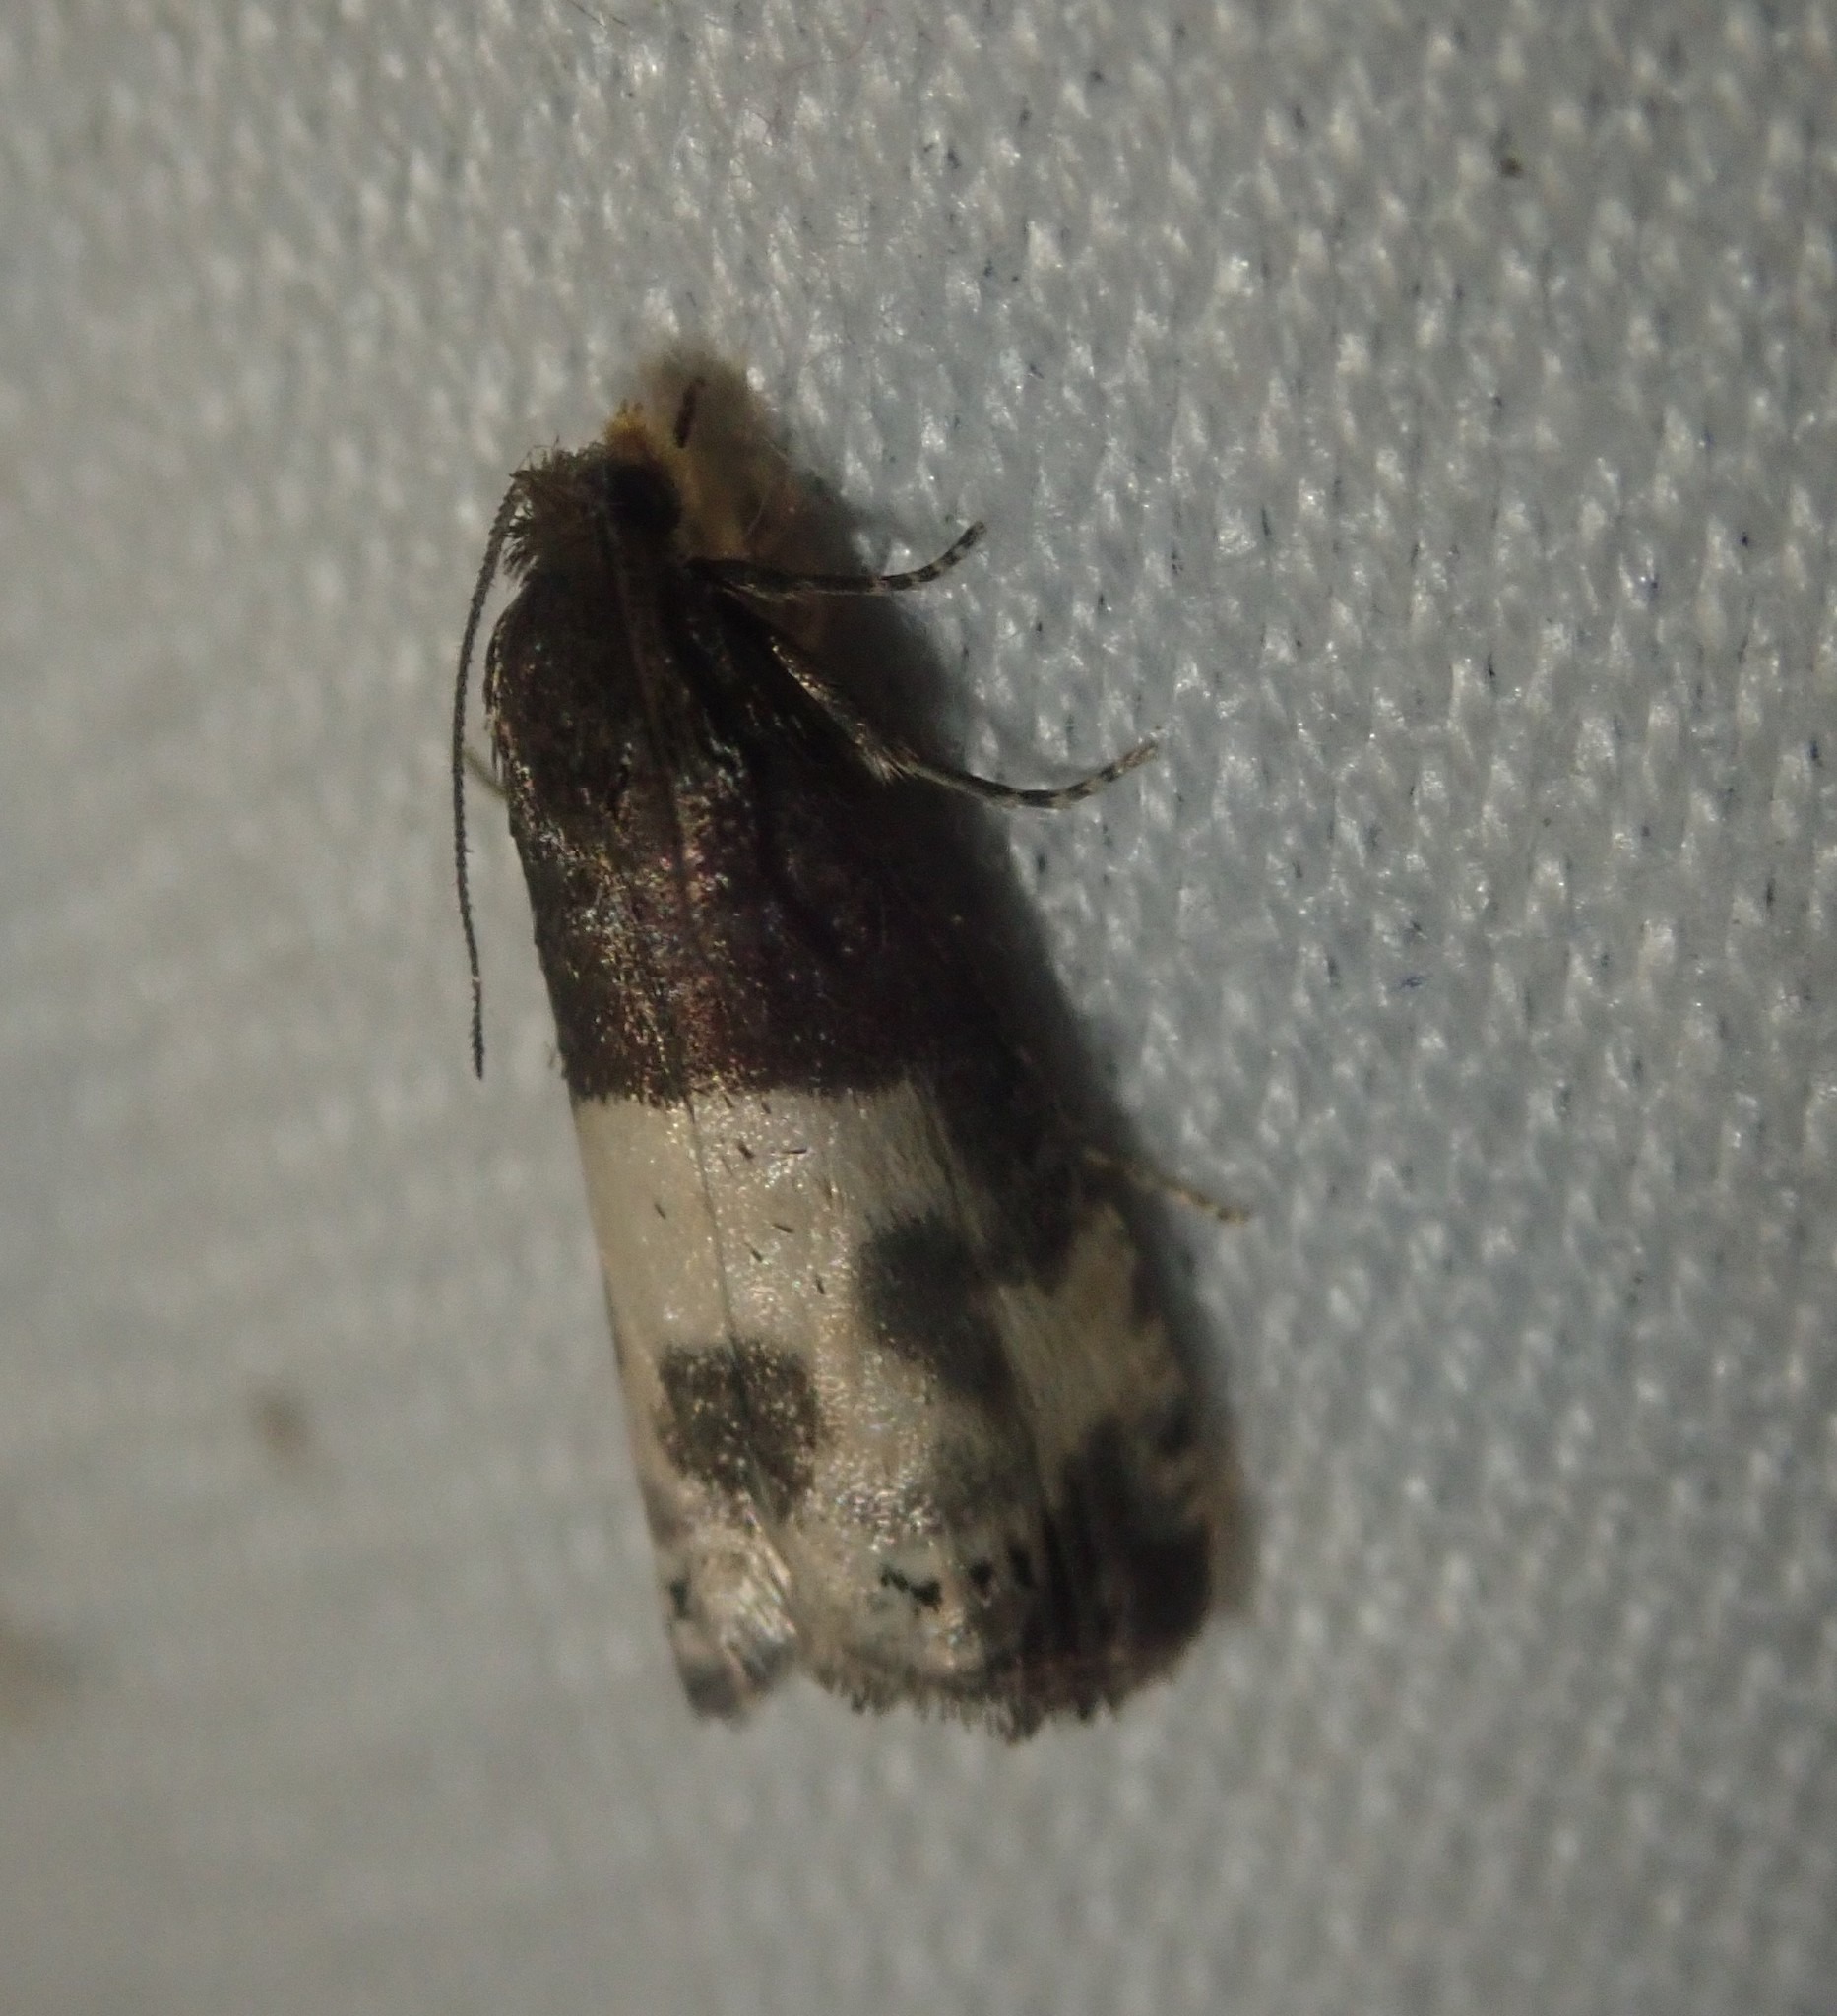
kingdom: Animalia
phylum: Arthropoda
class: Insecta
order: Lepidoptera
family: Tortricidae
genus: Notocelia
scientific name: Notocelia cynosbatella
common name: Yellow-faced bell moth
